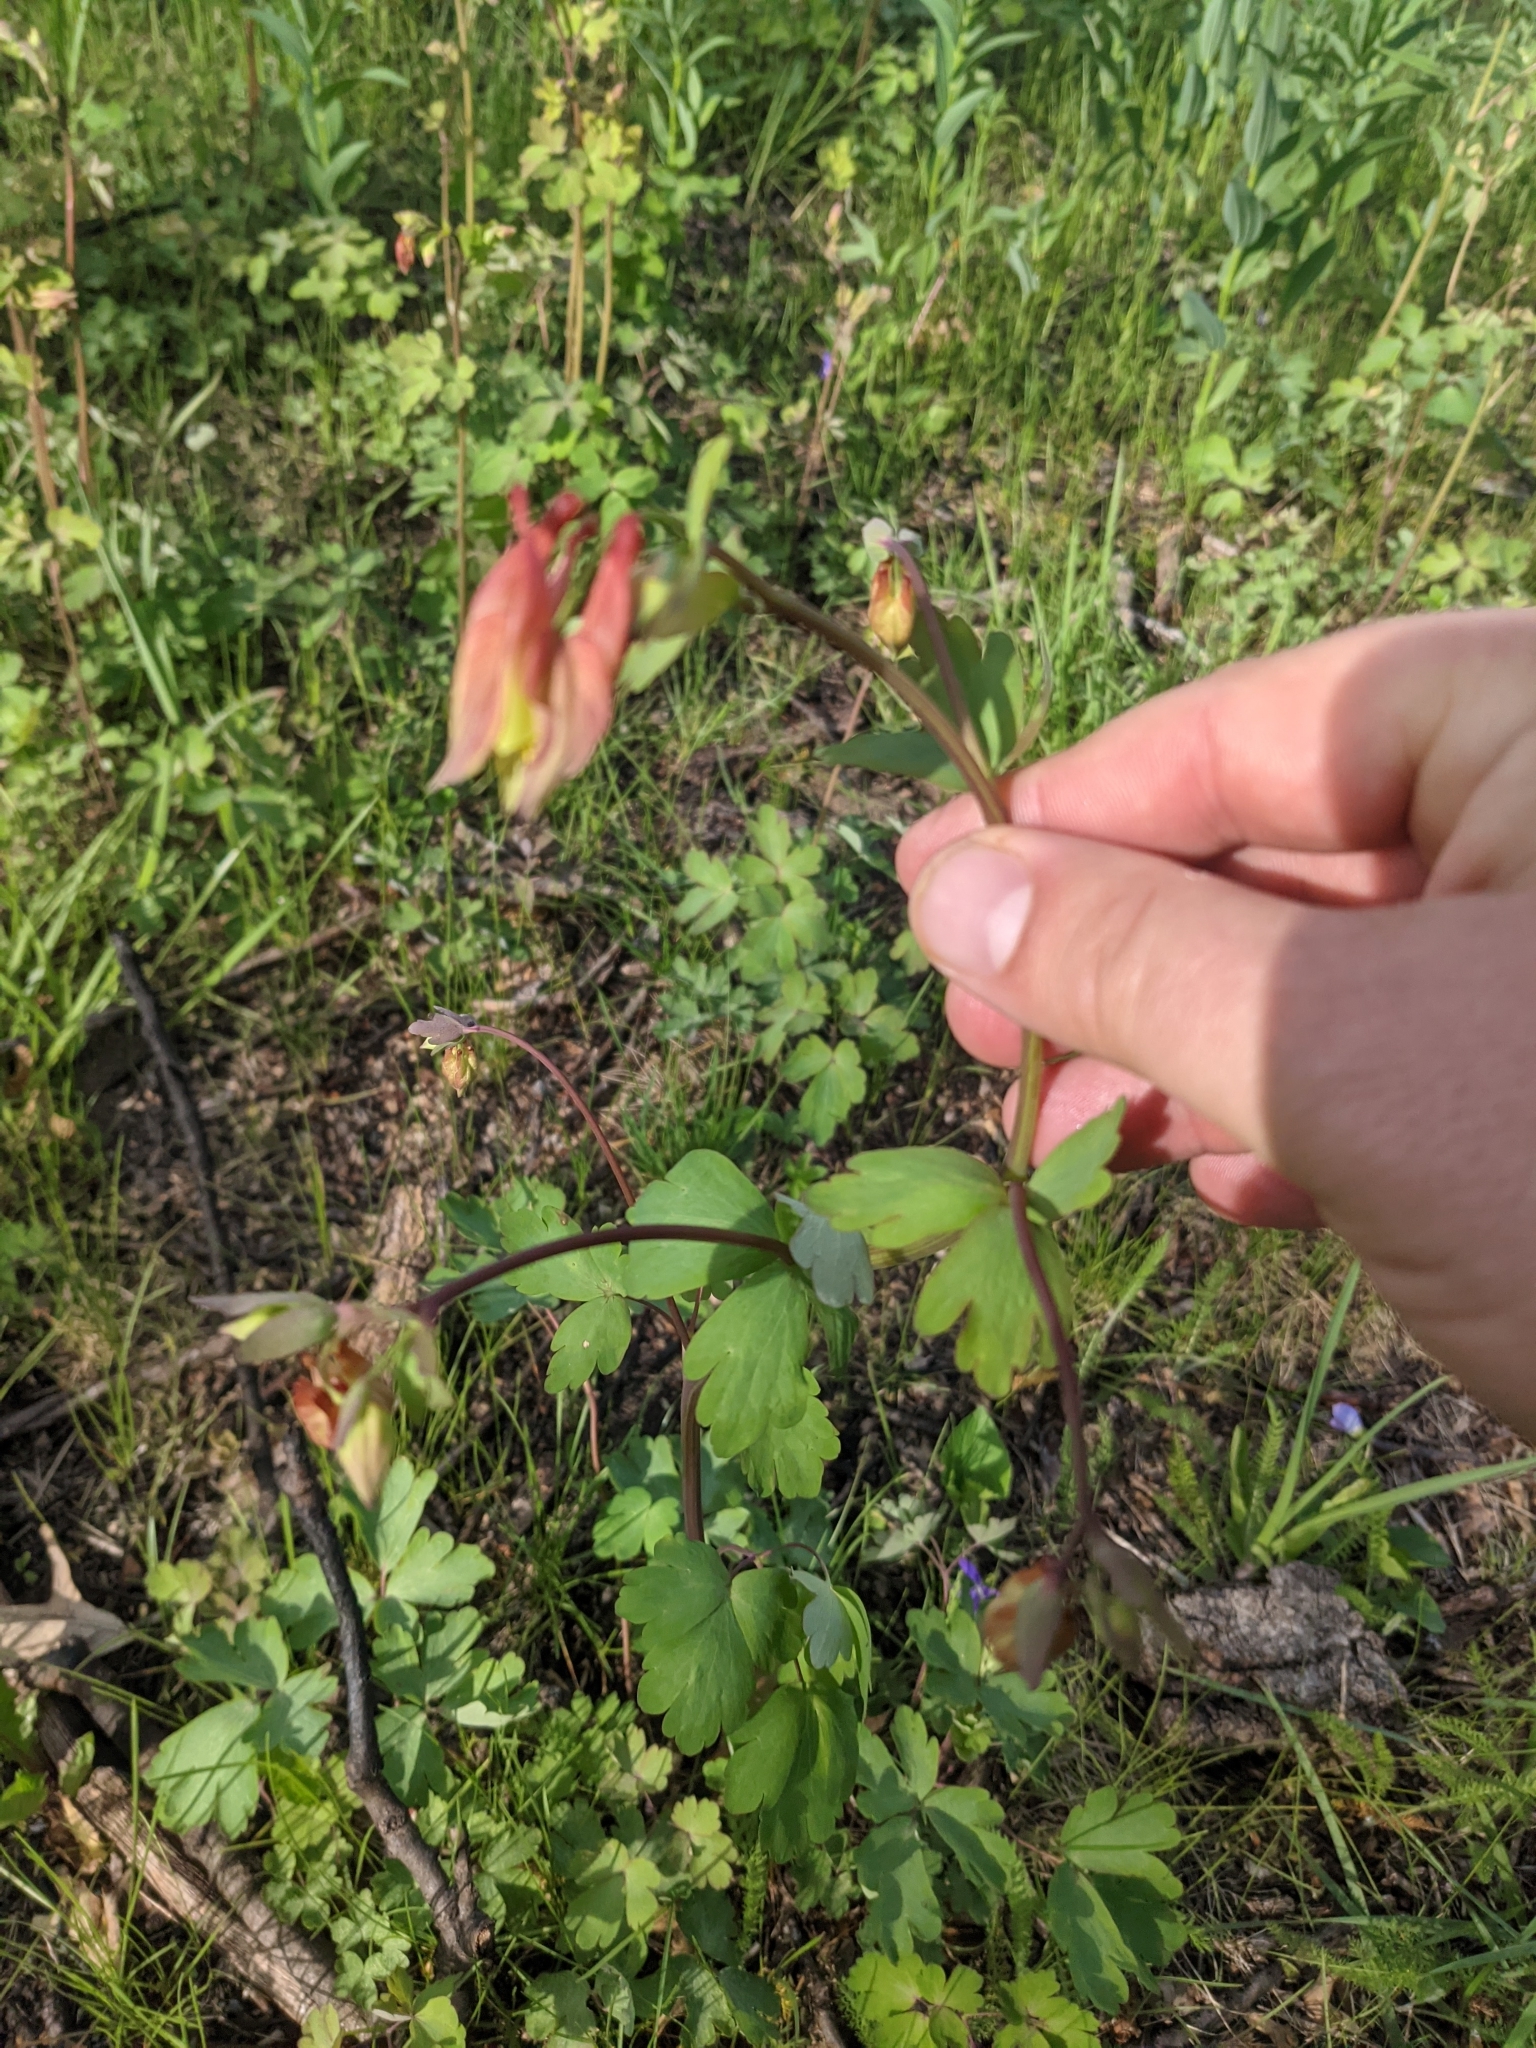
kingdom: Plantae
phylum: Tracheophyta
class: Magnoliopsida
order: Ranunculales
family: Ranunculaceae
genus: Aquilegia
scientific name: Aquilegia canadensis
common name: American columbine
